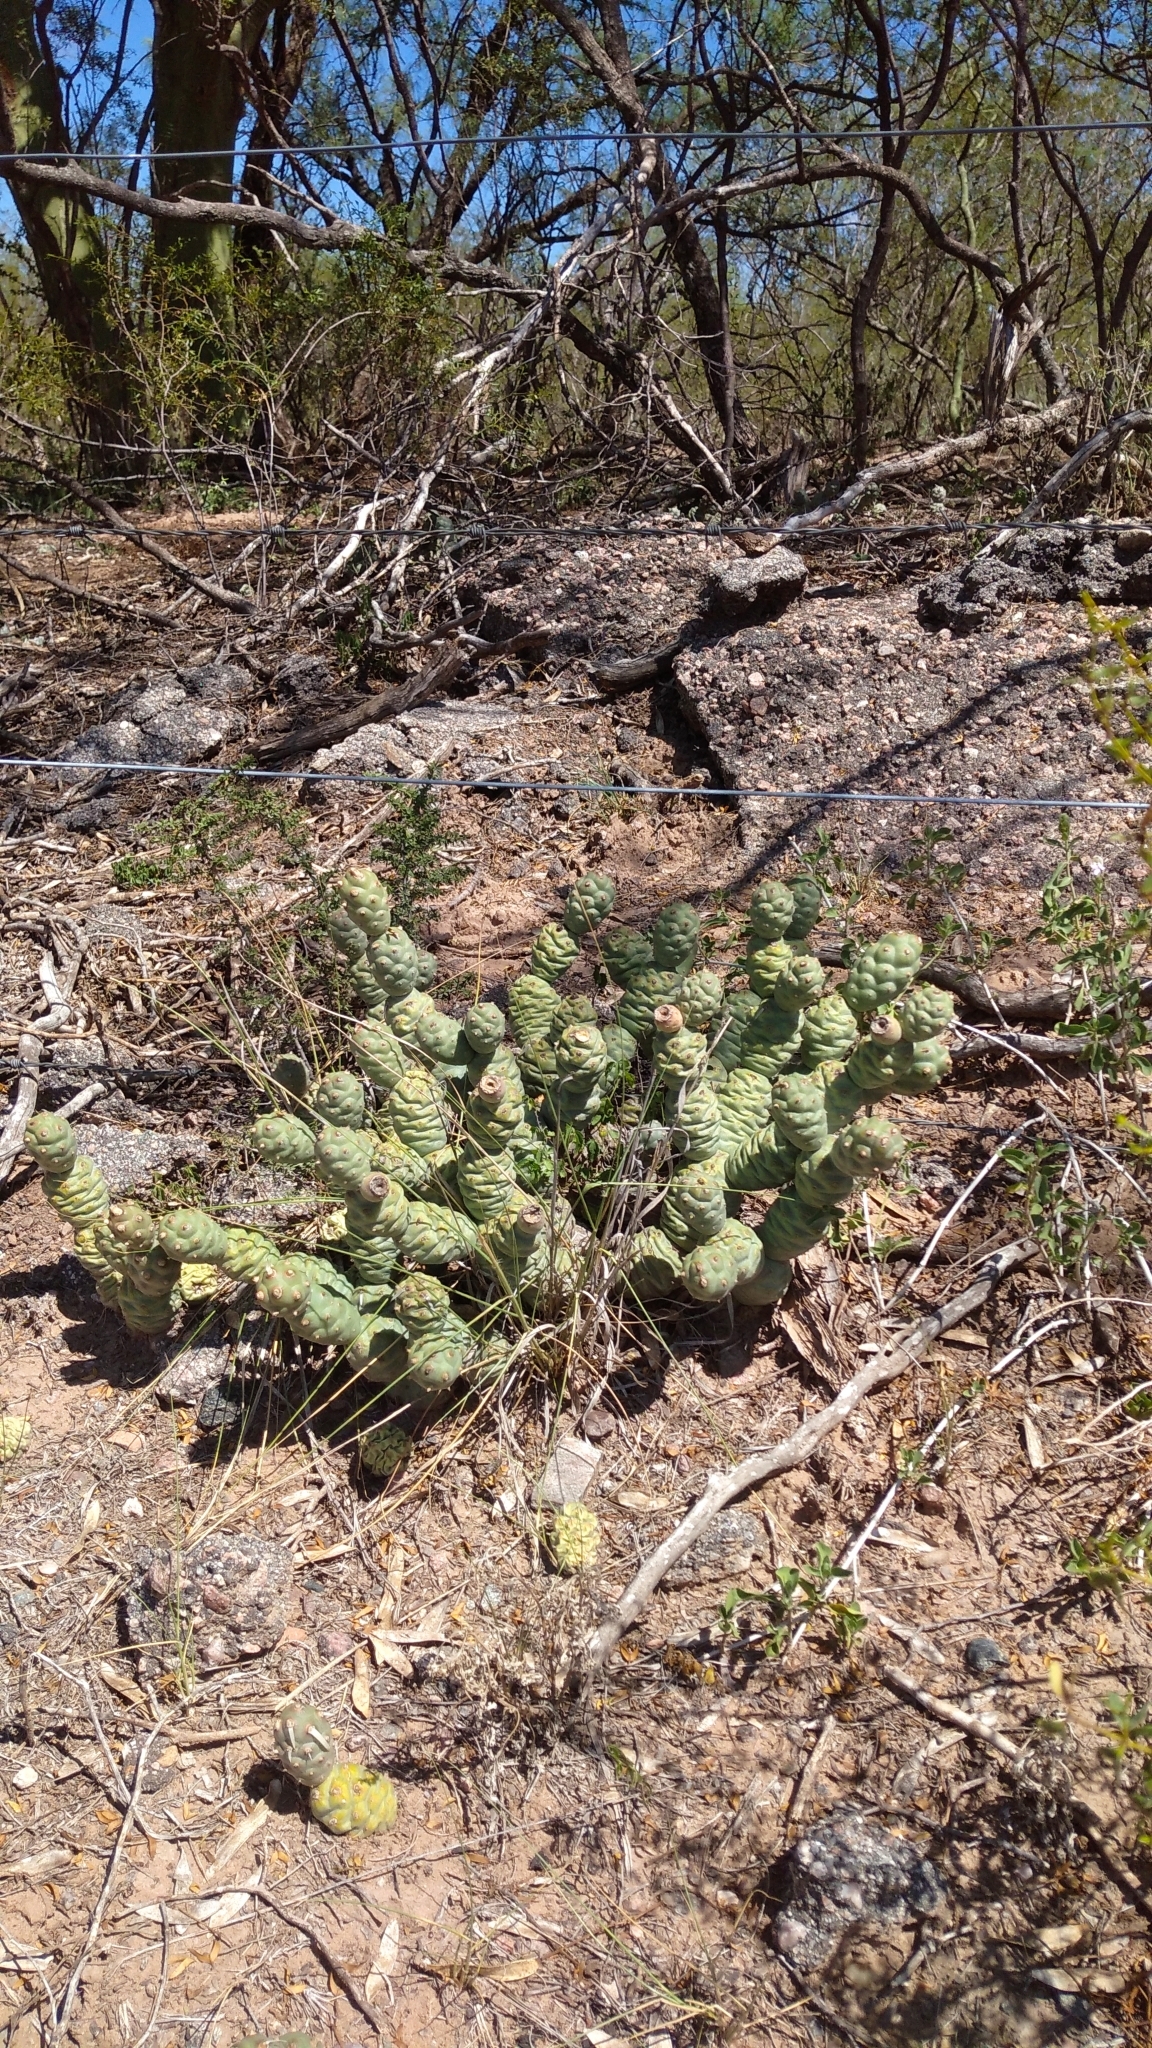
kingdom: Plantae
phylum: Tracheophyta
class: Magnoliopsida
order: Caryophyllales
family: Cactaceae
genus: Tephrocactus
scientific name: Tephrocactus articulatus
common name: Paper cactus
